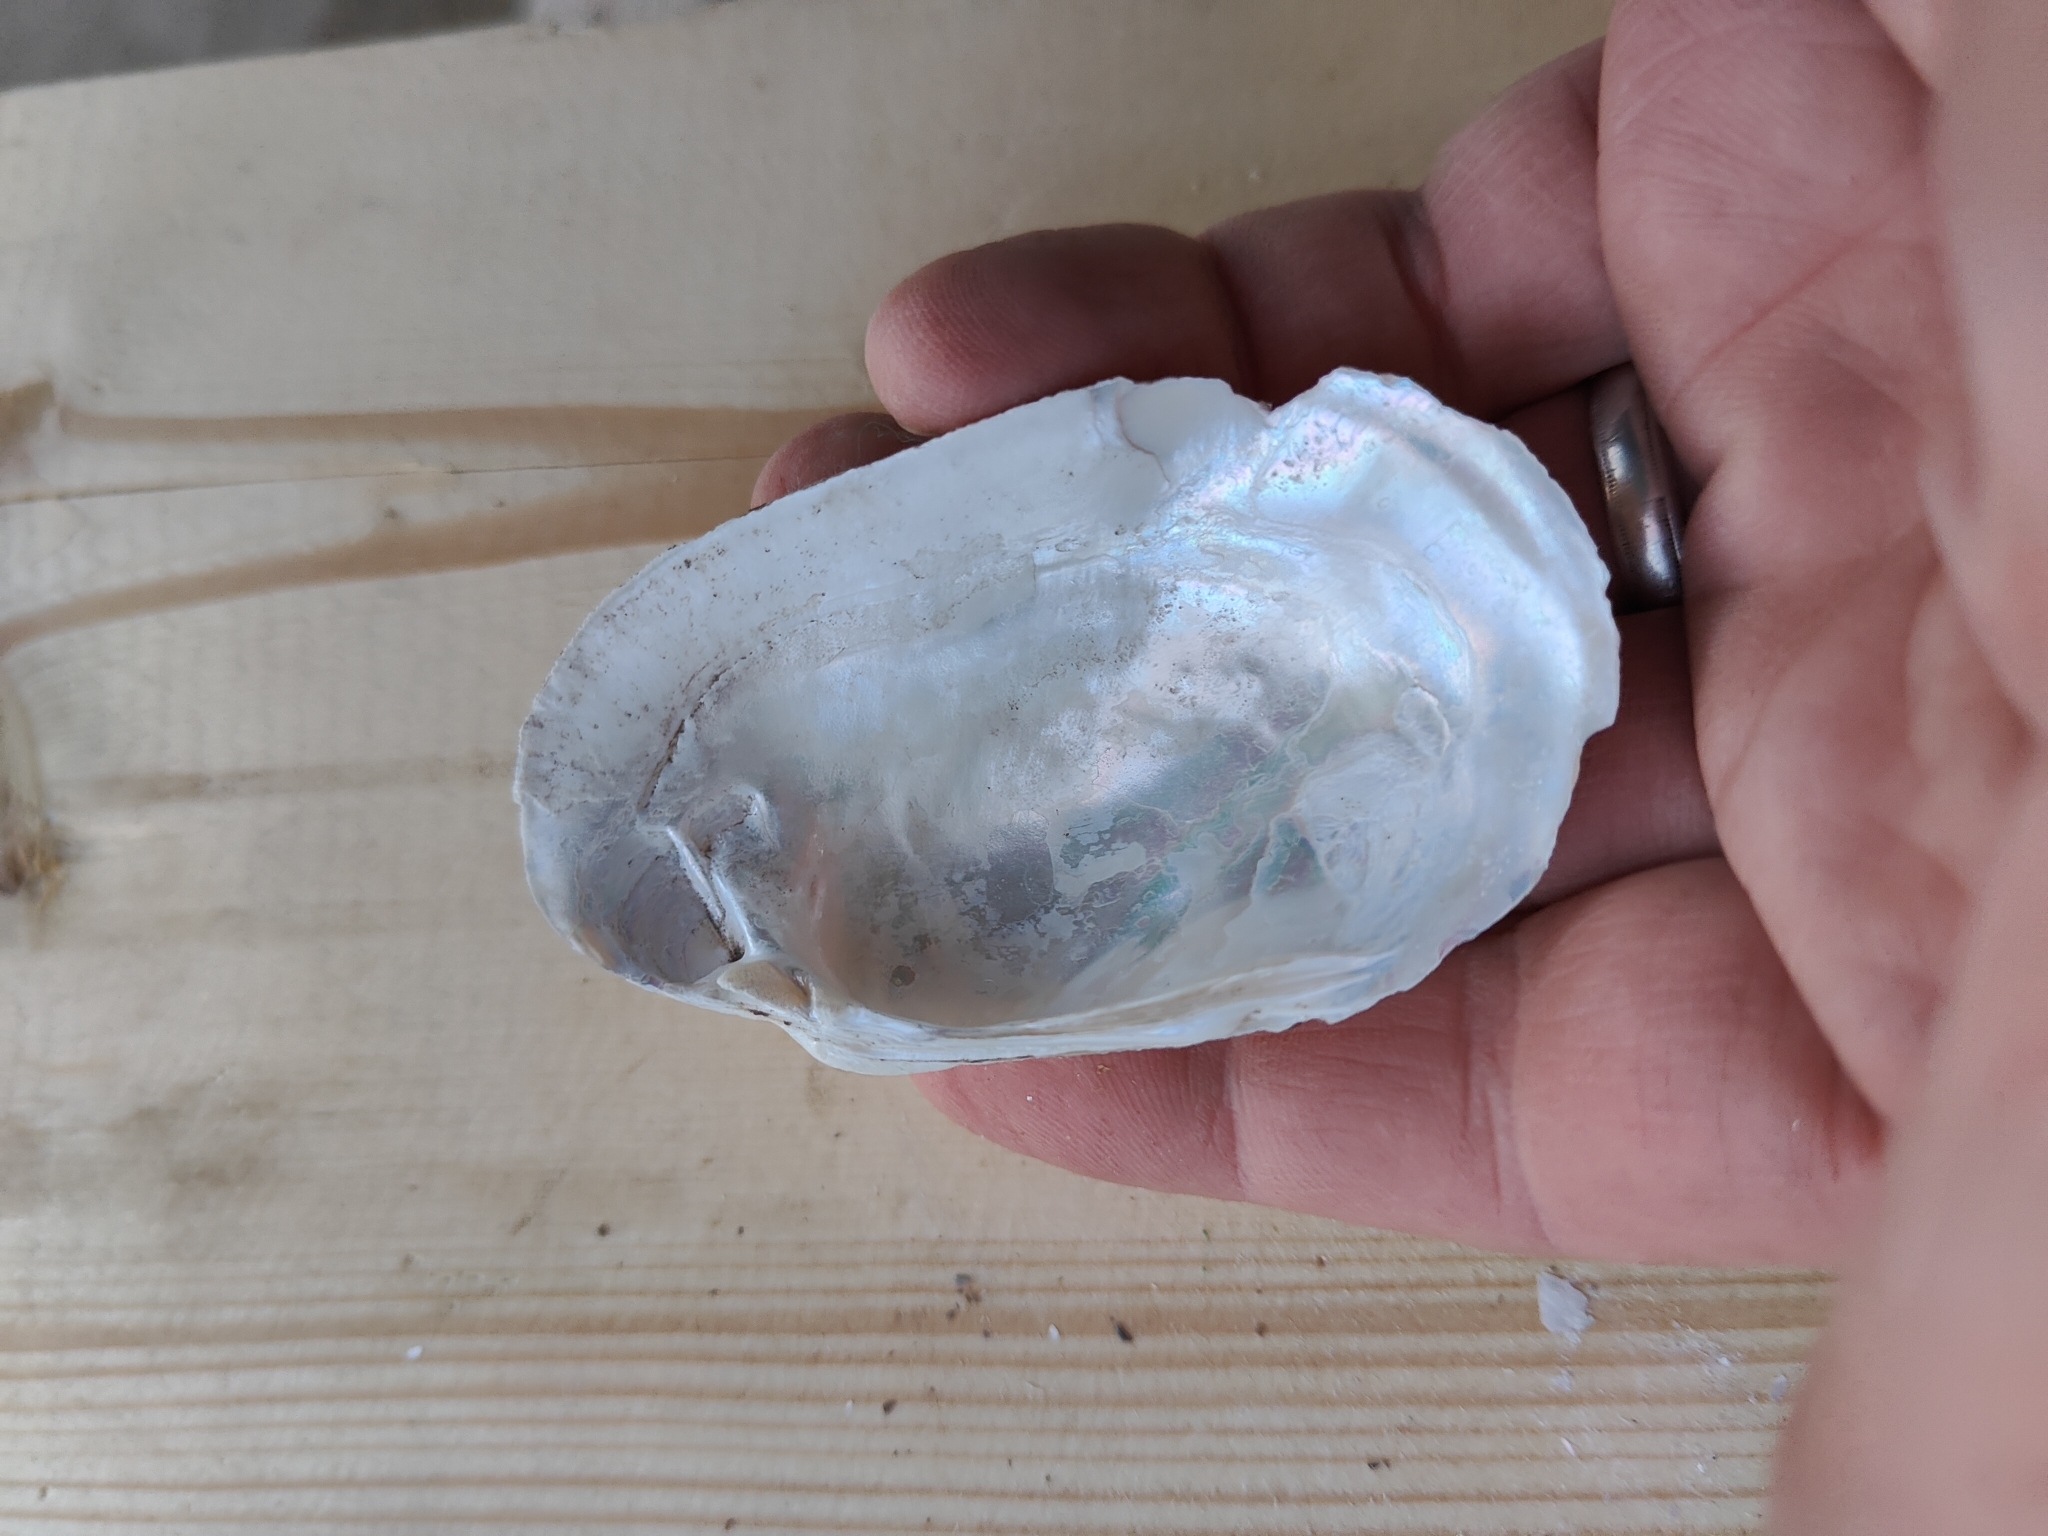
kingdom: Animalia
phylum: Mollusca
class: Bivalvia
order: Unionida
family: Unionidae
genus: Lampsilis
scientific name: Lampsilis siliquoidea
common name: Fatmucket
